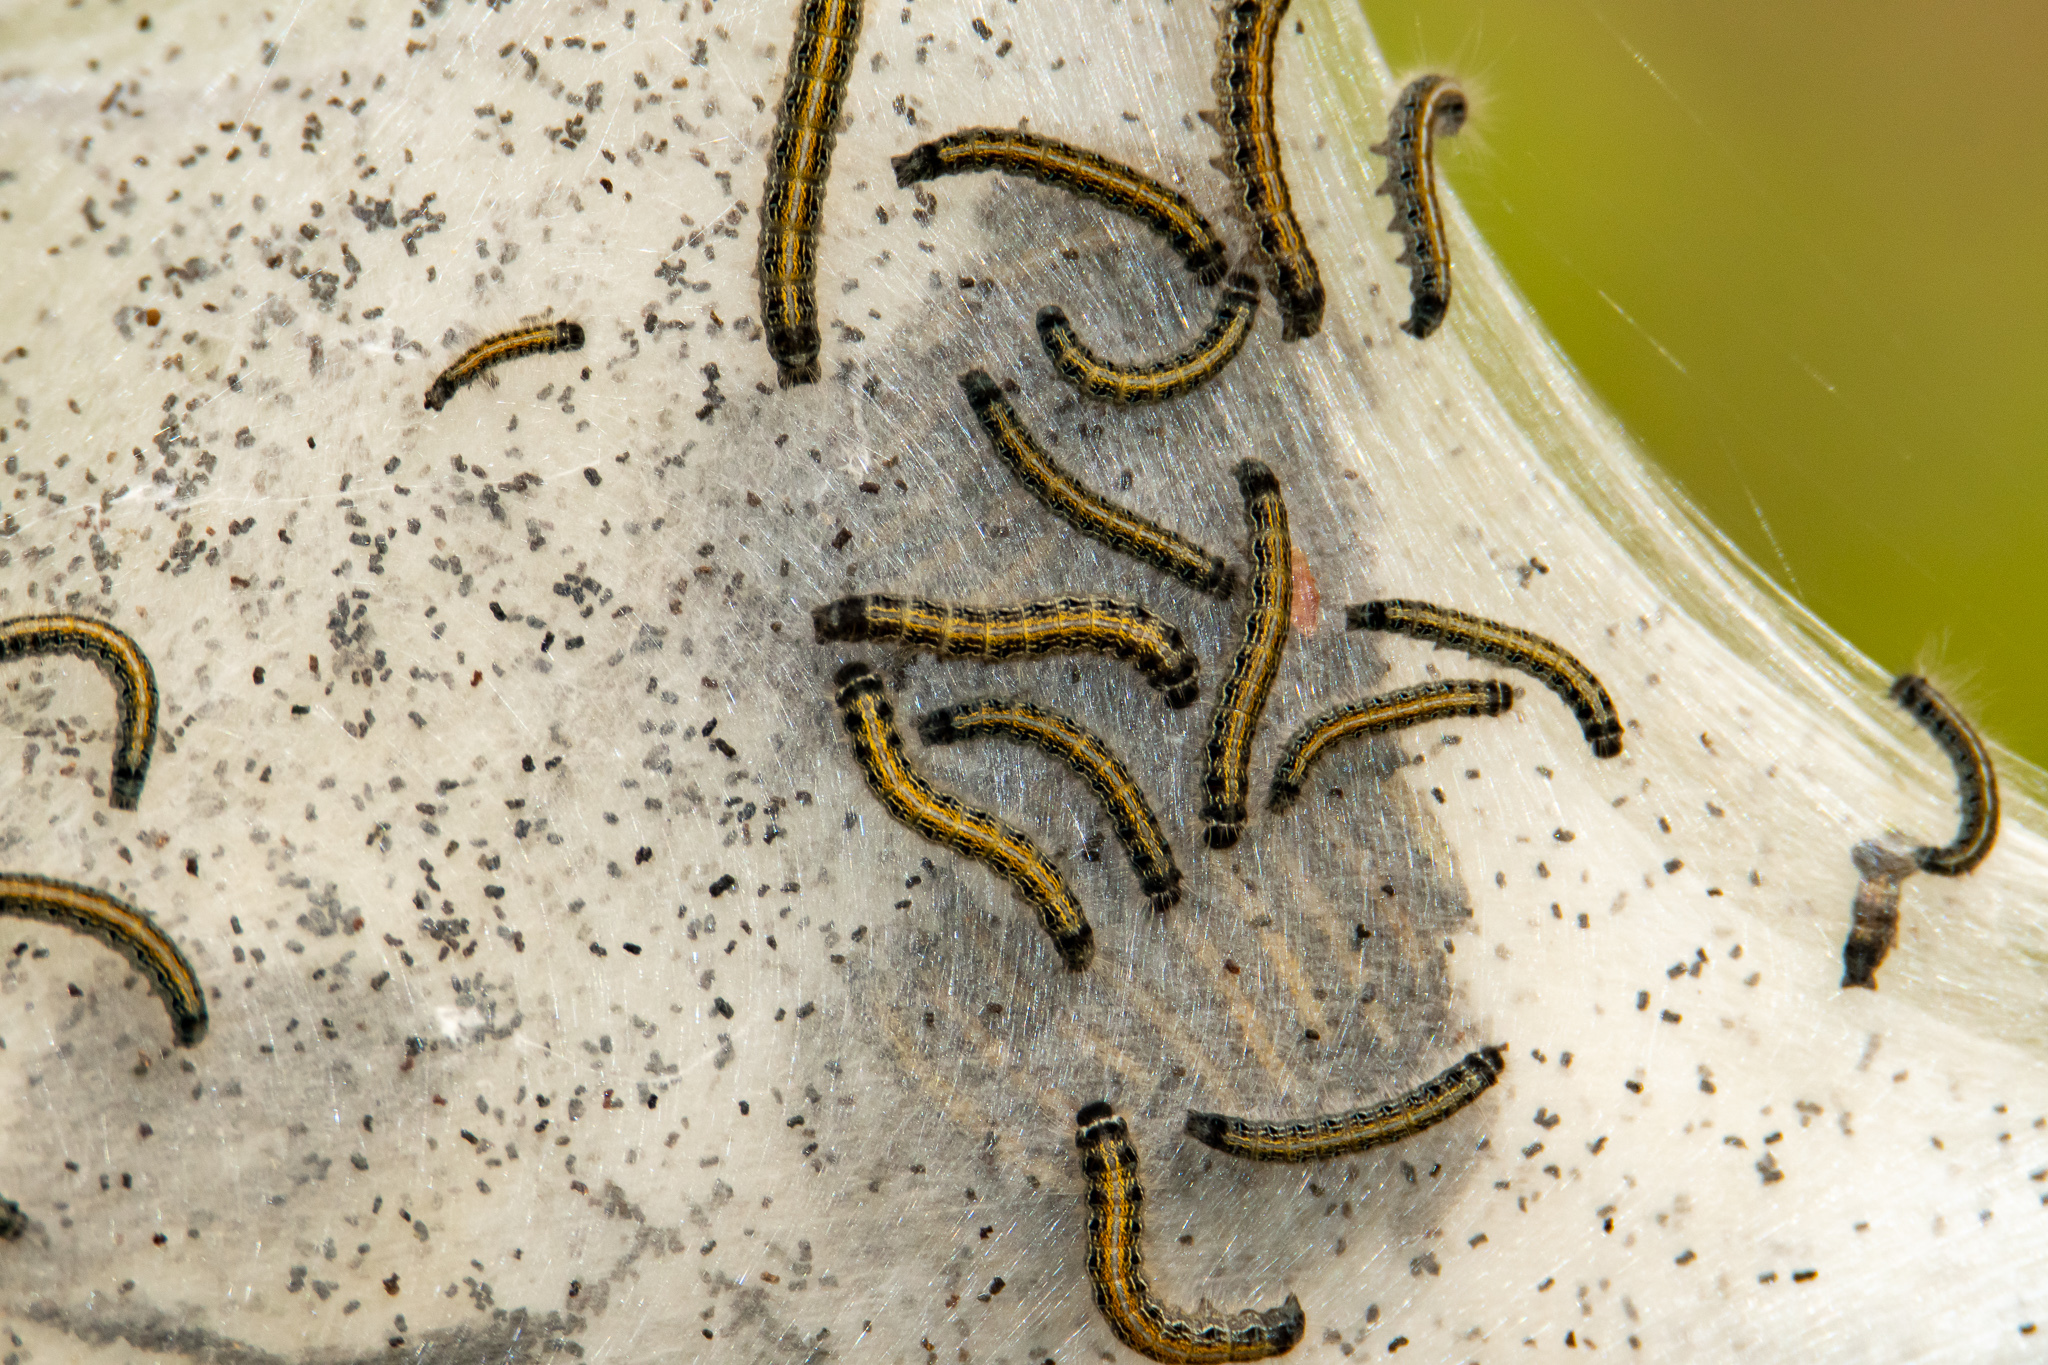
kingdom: Animalia
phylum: Arthropoda
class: Insecta
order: Lepidoptera
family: Lasiocampidae
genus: Malacosoma
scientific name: Malacosoma americana
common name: Eastern tent caterpillar moth
